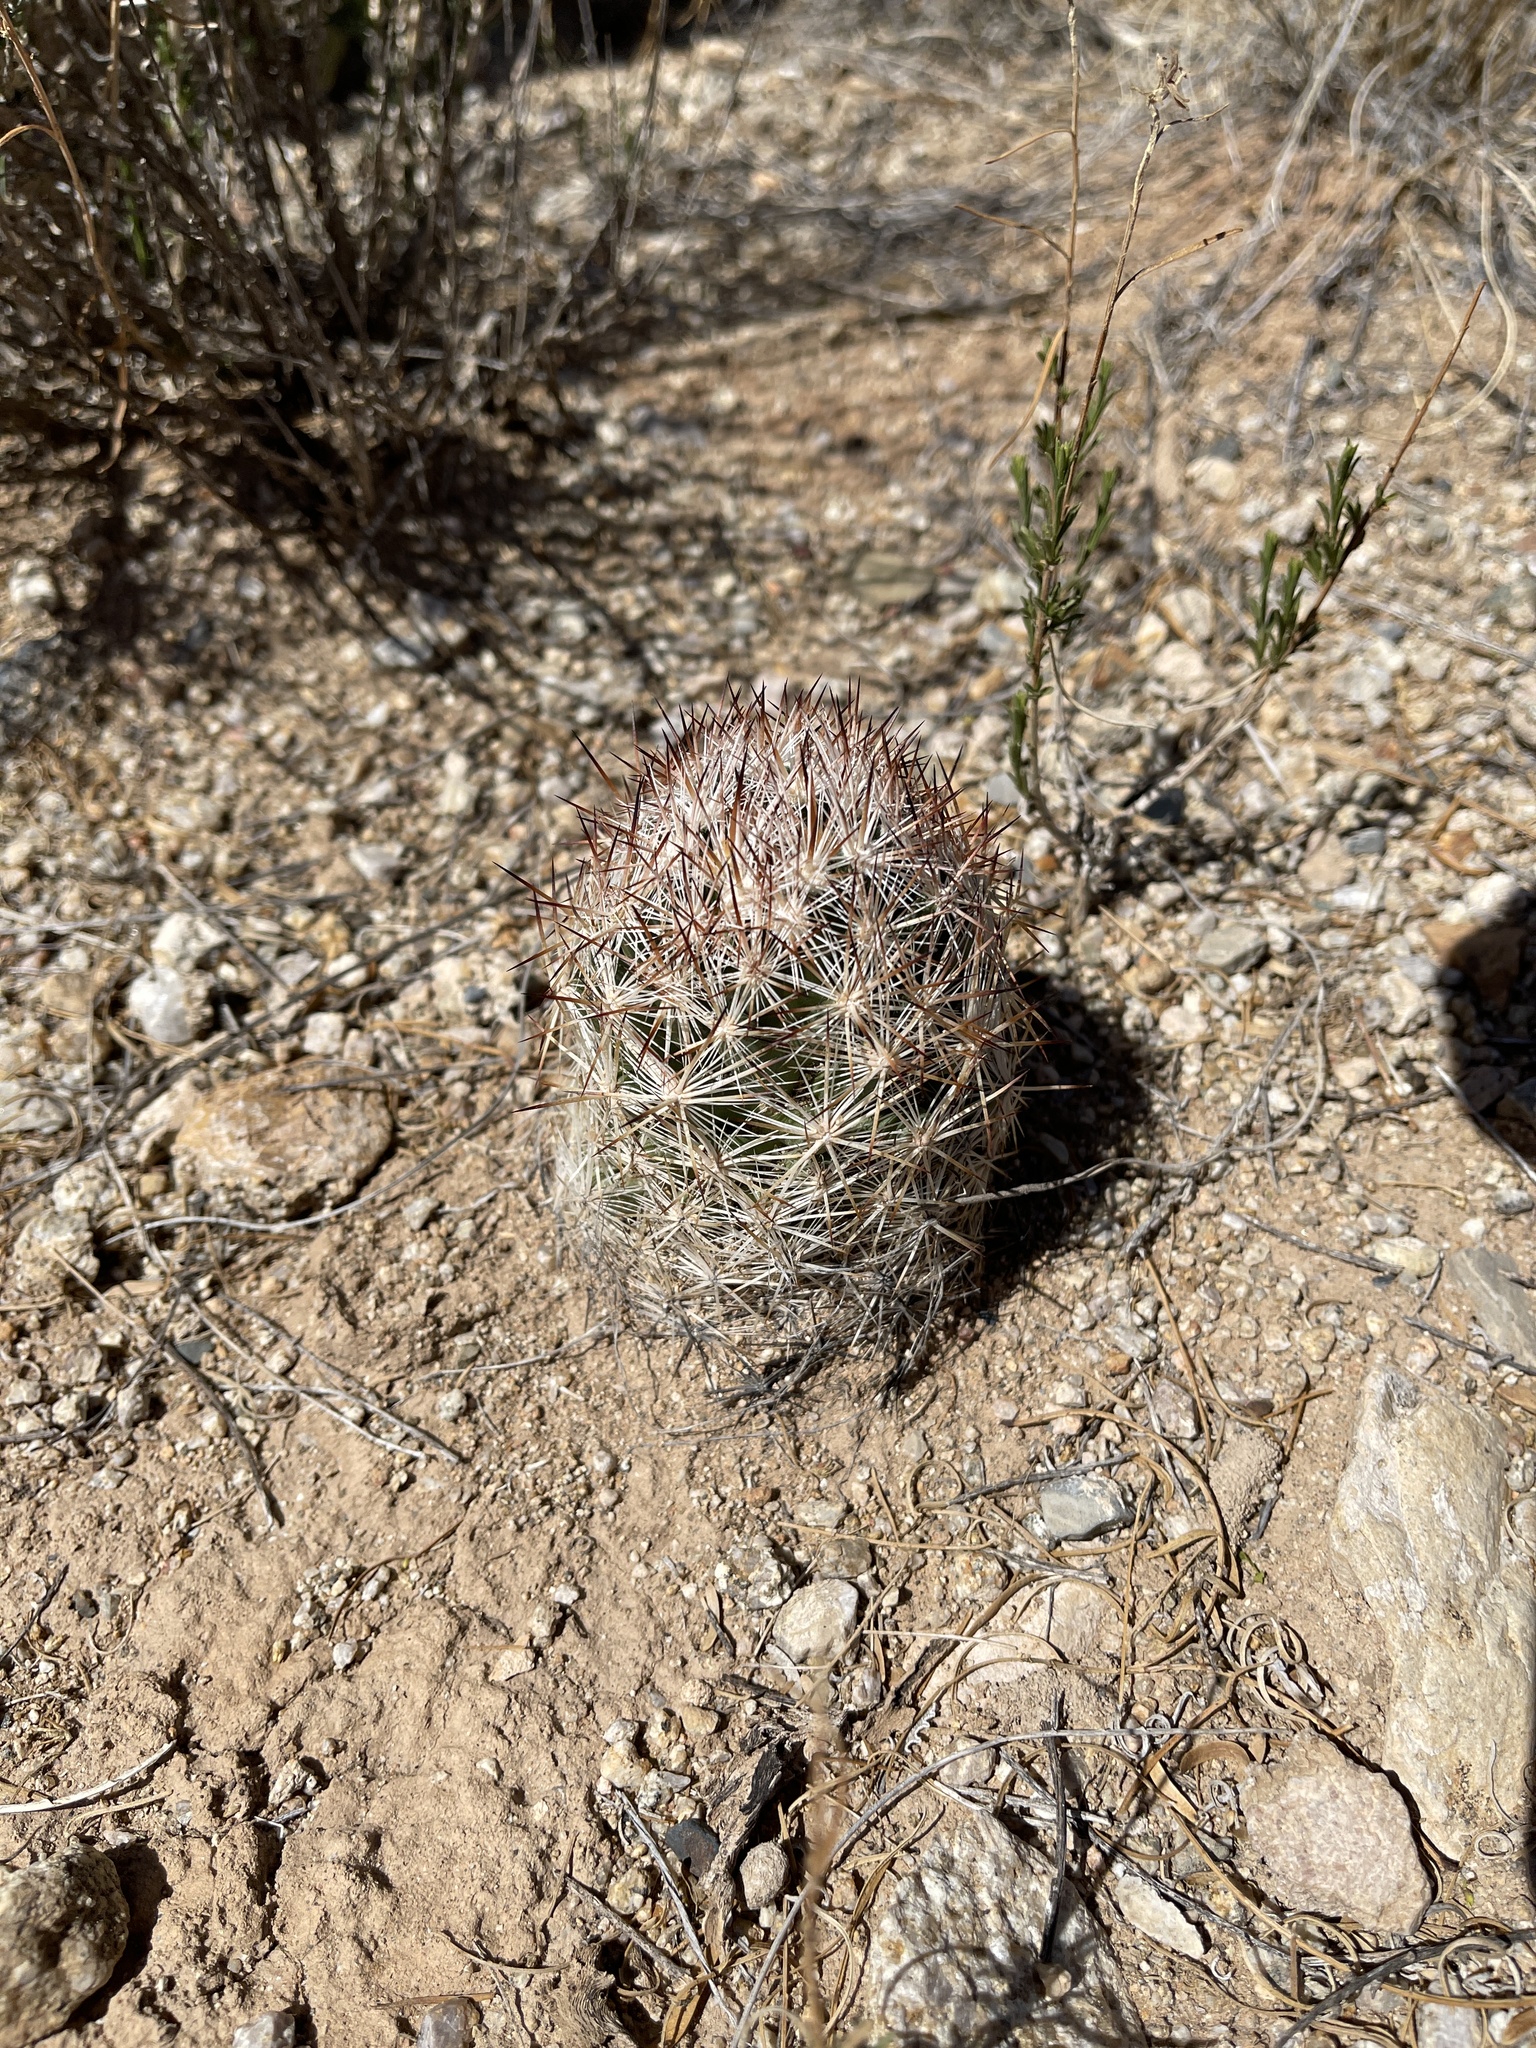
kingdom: Plantae
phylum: Tracheophyta
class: Magnoliopsida
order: Caryophyllales
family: Cactaceae
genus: Pelecyphora
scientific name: Pelecyphora vivipara
